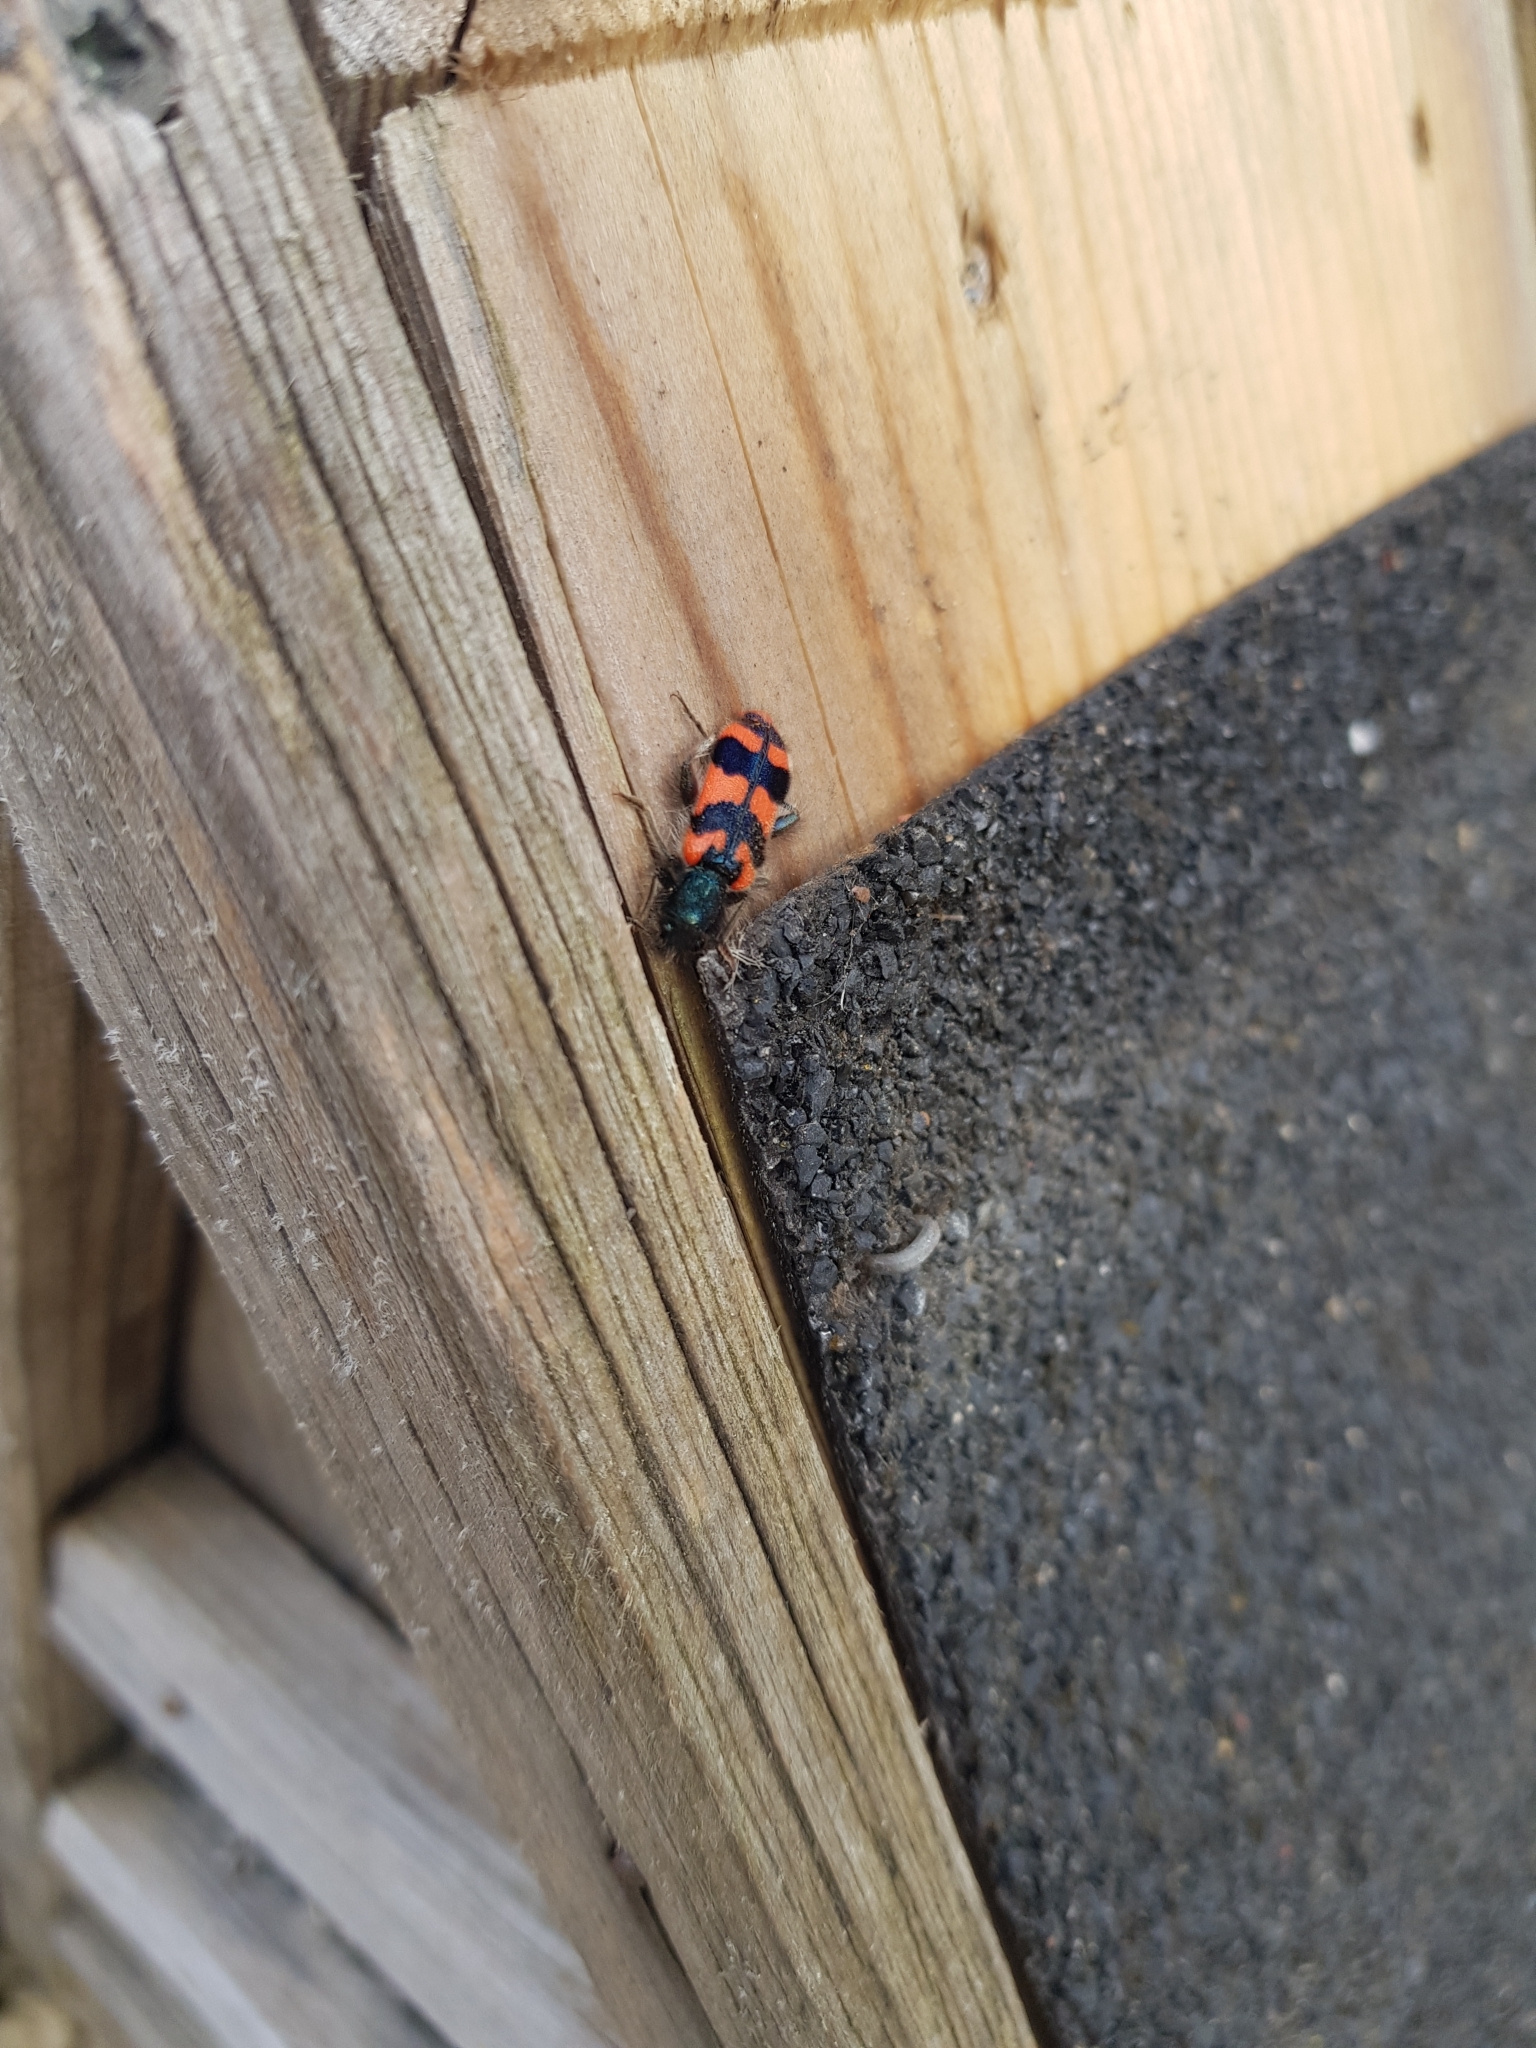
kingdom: Animalia
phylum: Arthropoda
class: Insecta
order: Coleoptera
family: Cleridae
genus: Trichodes
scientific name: Trichodes alvearius
